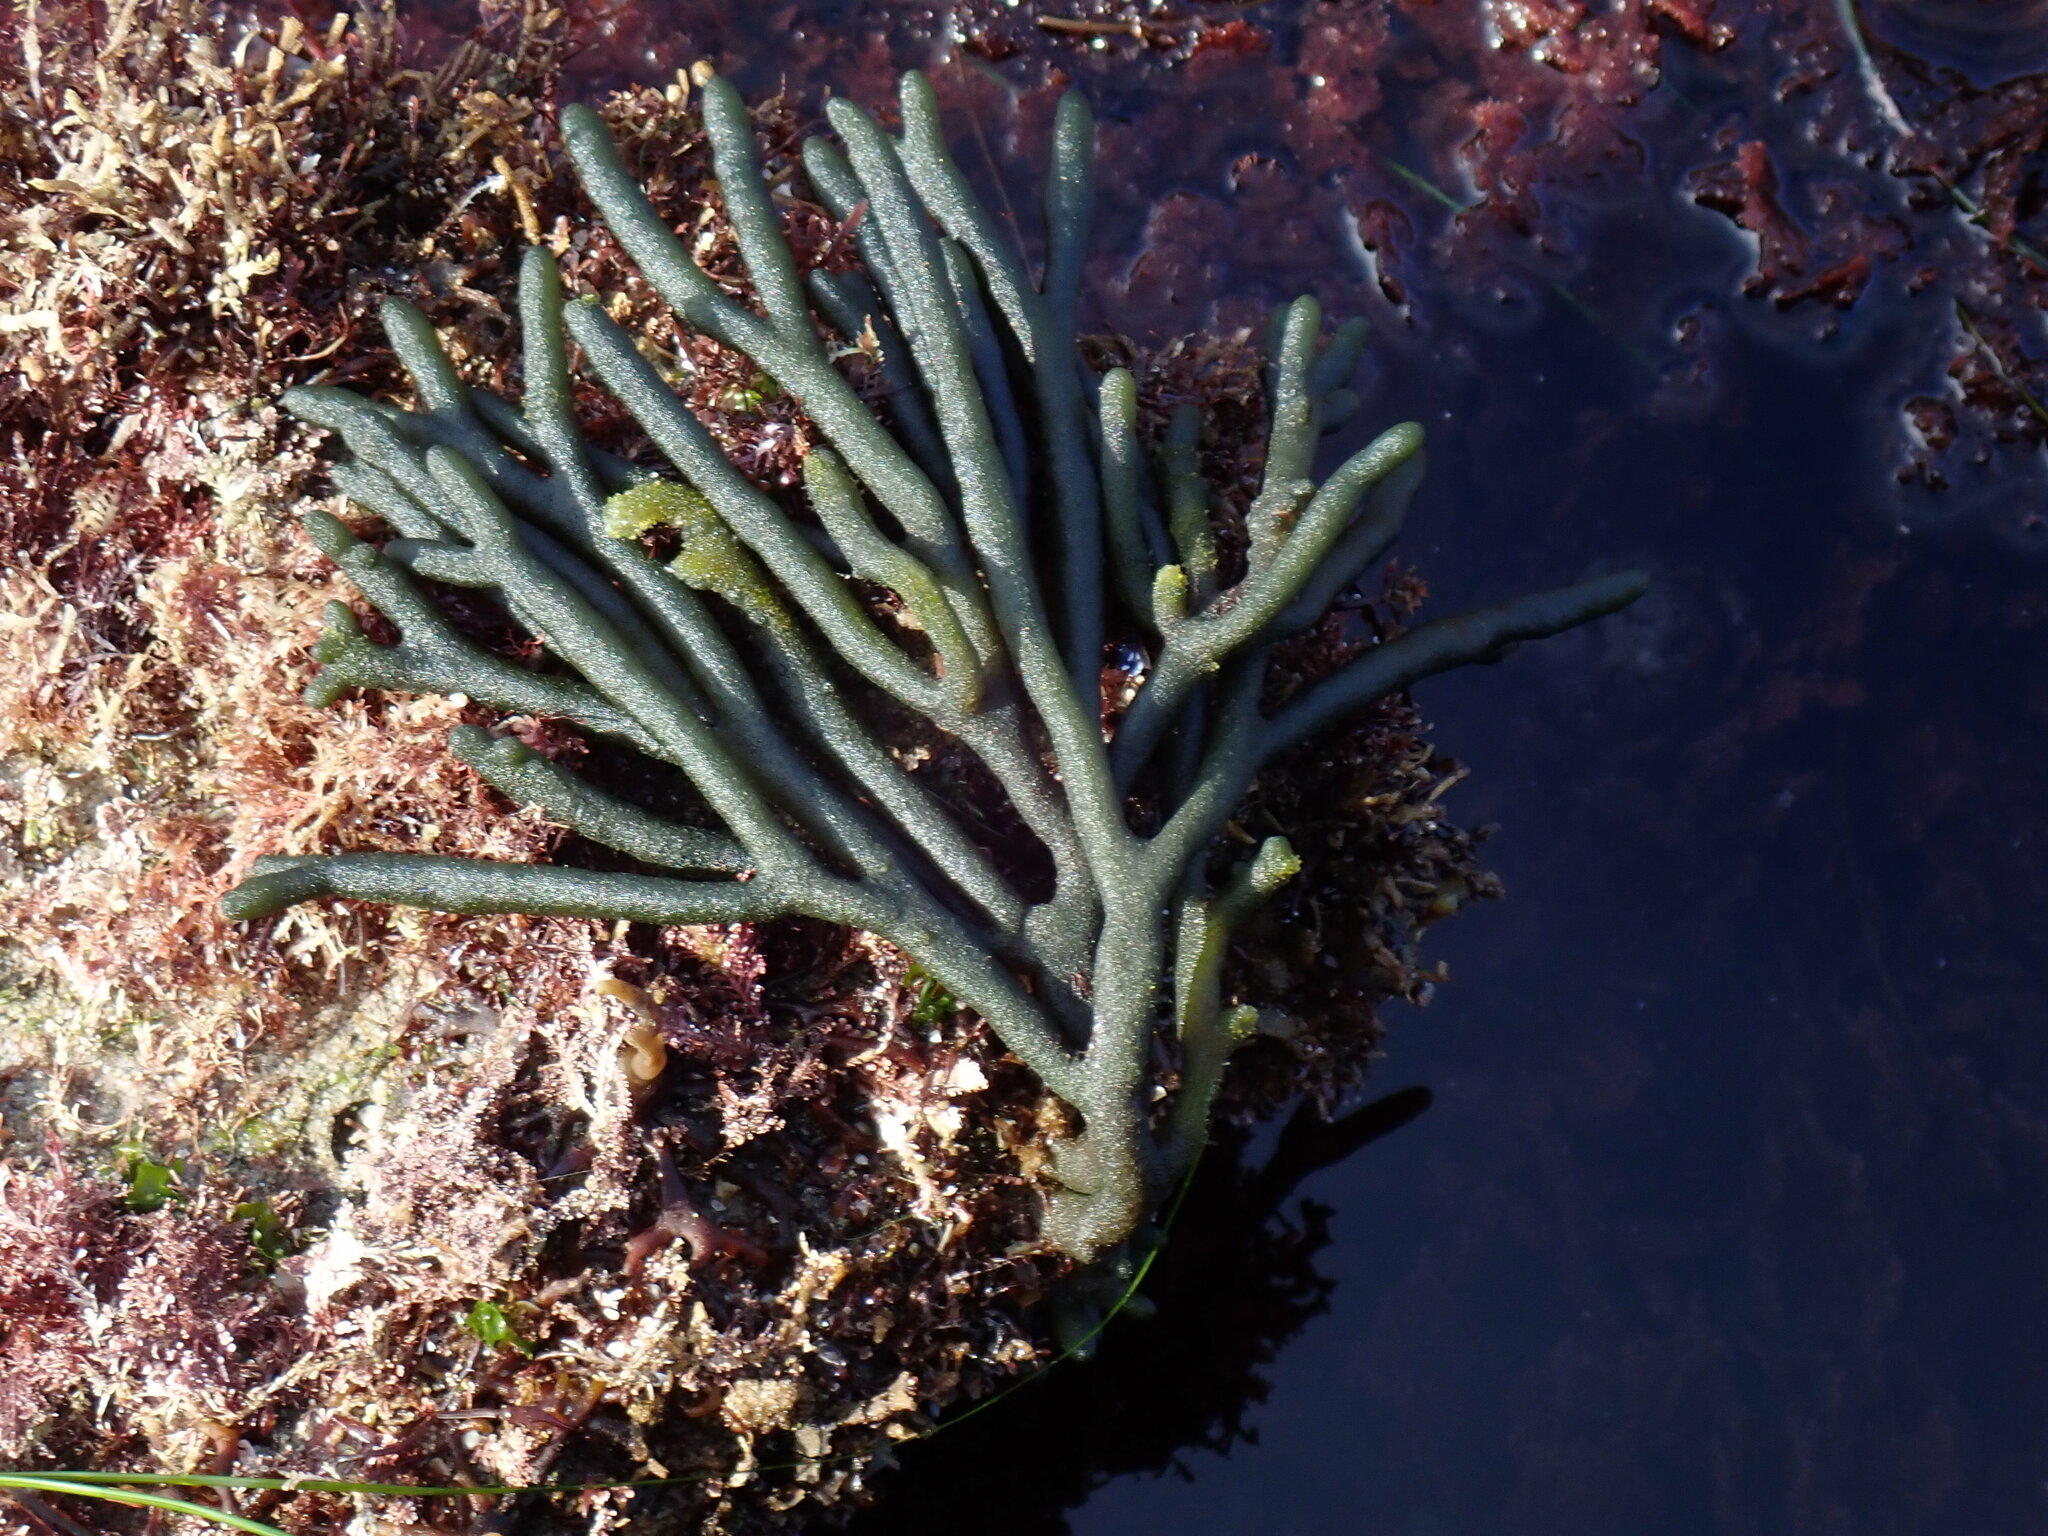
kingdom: Plantae
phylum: Chlorophyta
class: Ulvophyceae
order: Bryopsidales
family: Codiaceae
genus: Codium
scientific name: Codium fragile
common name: Dead man's fingers
